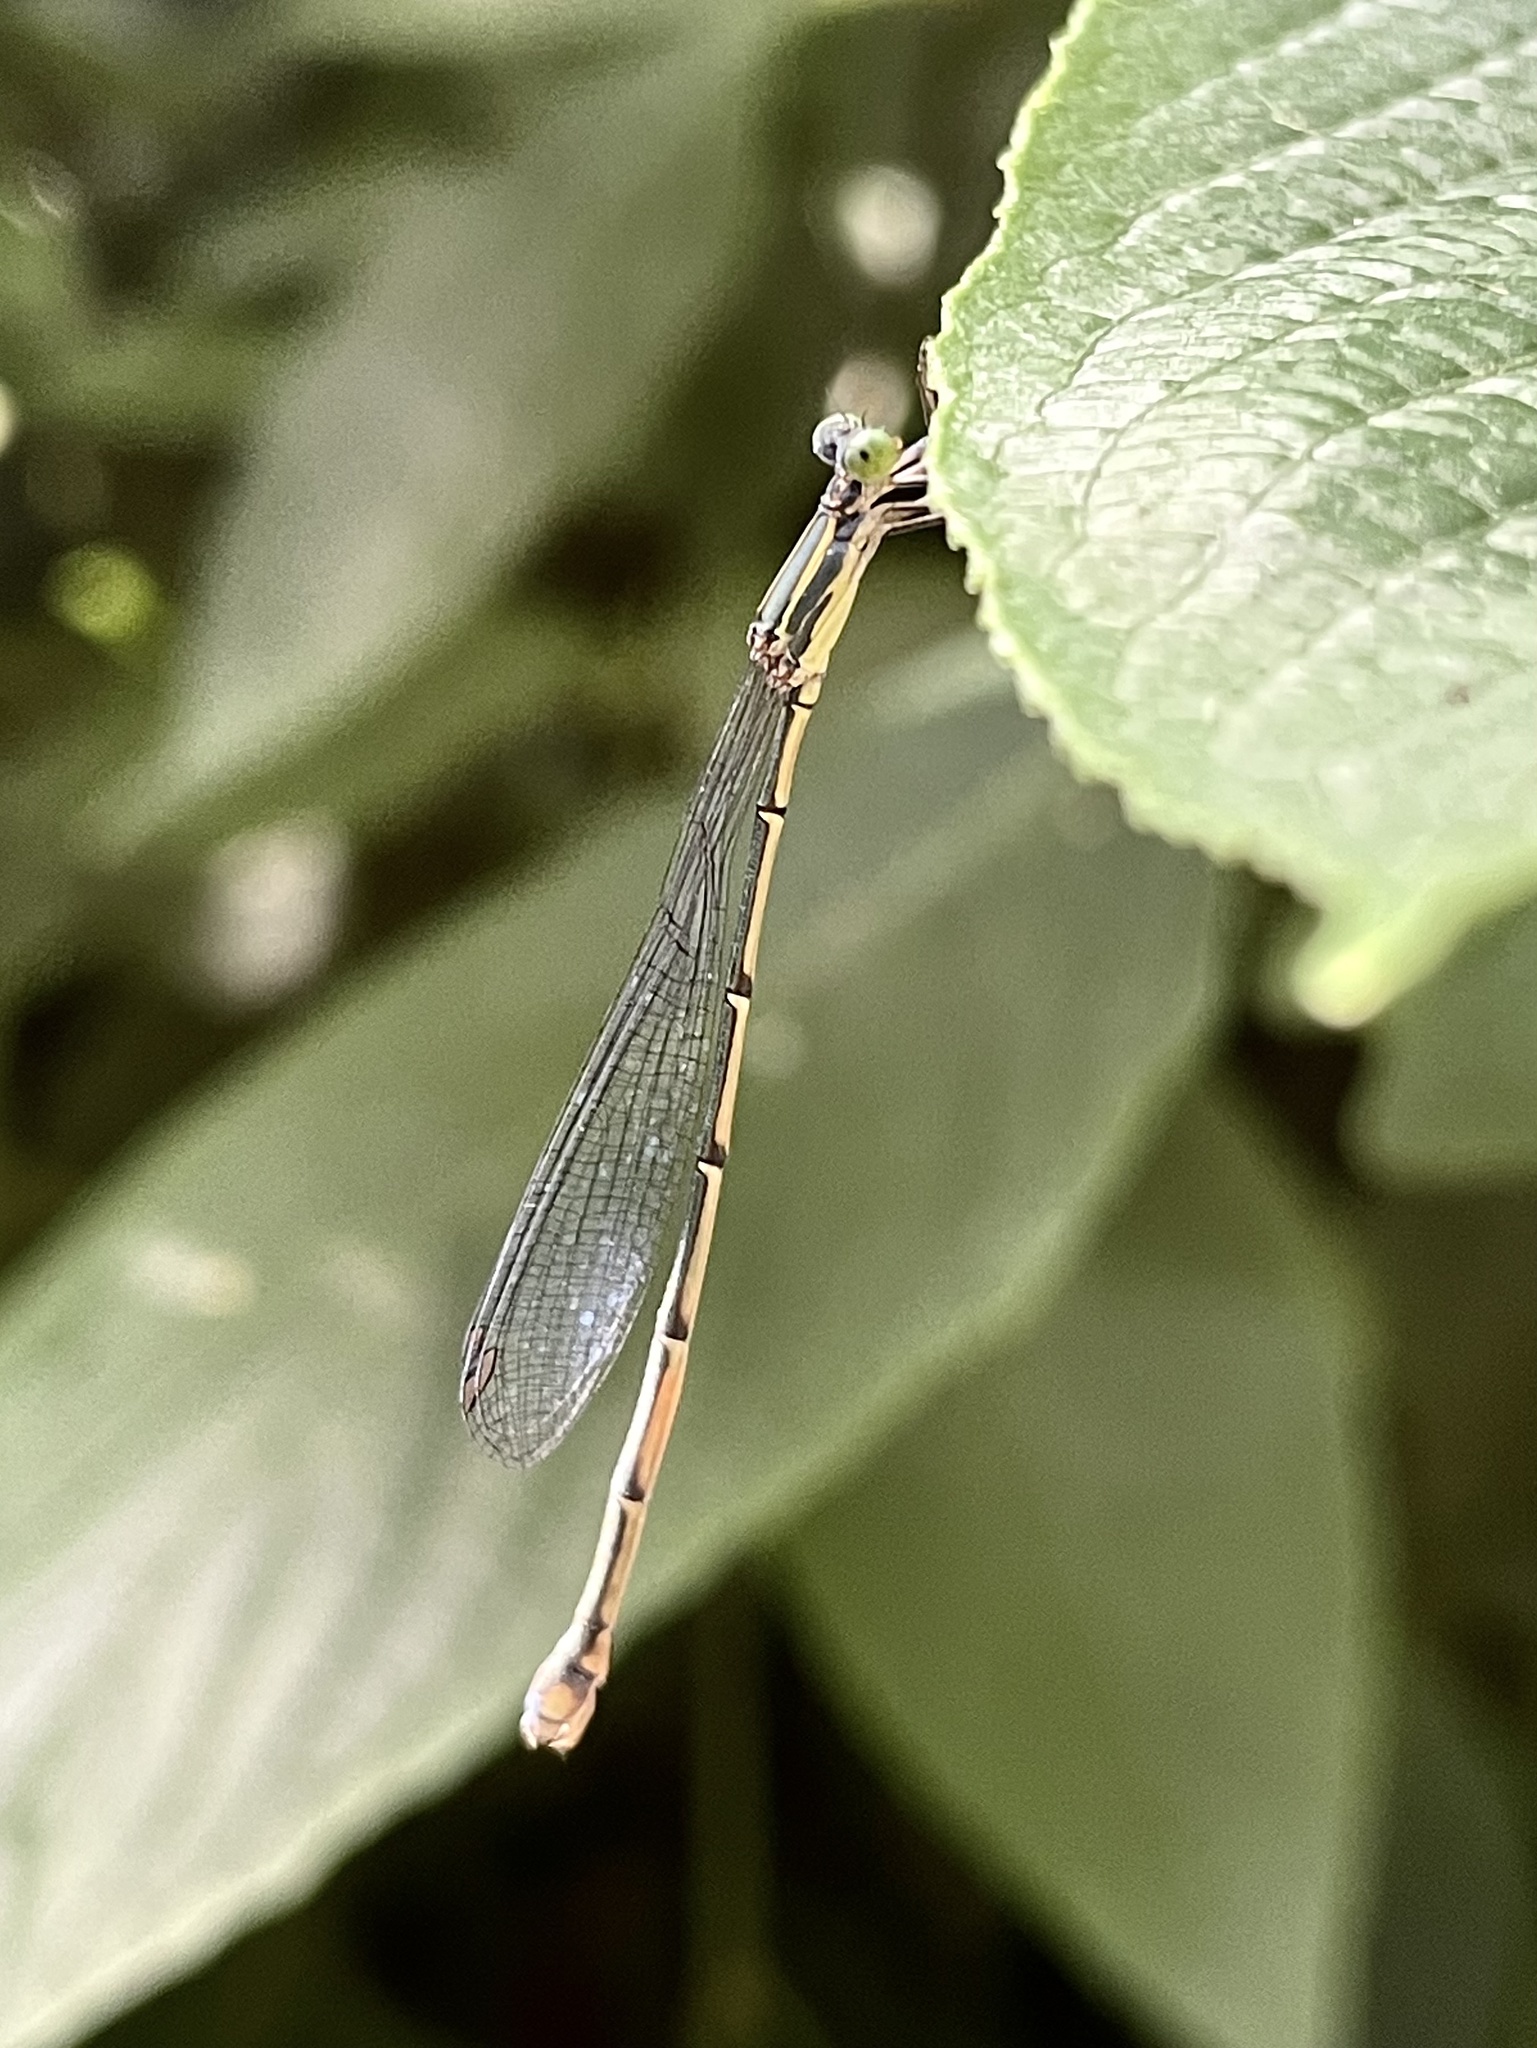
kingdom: Animalia
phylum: Arthropoda
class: Insecta
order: Odonata
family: Isostictidae
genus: Rhadinosticta
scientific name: Rhadinosticta simplex
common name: Powdered wiretail
